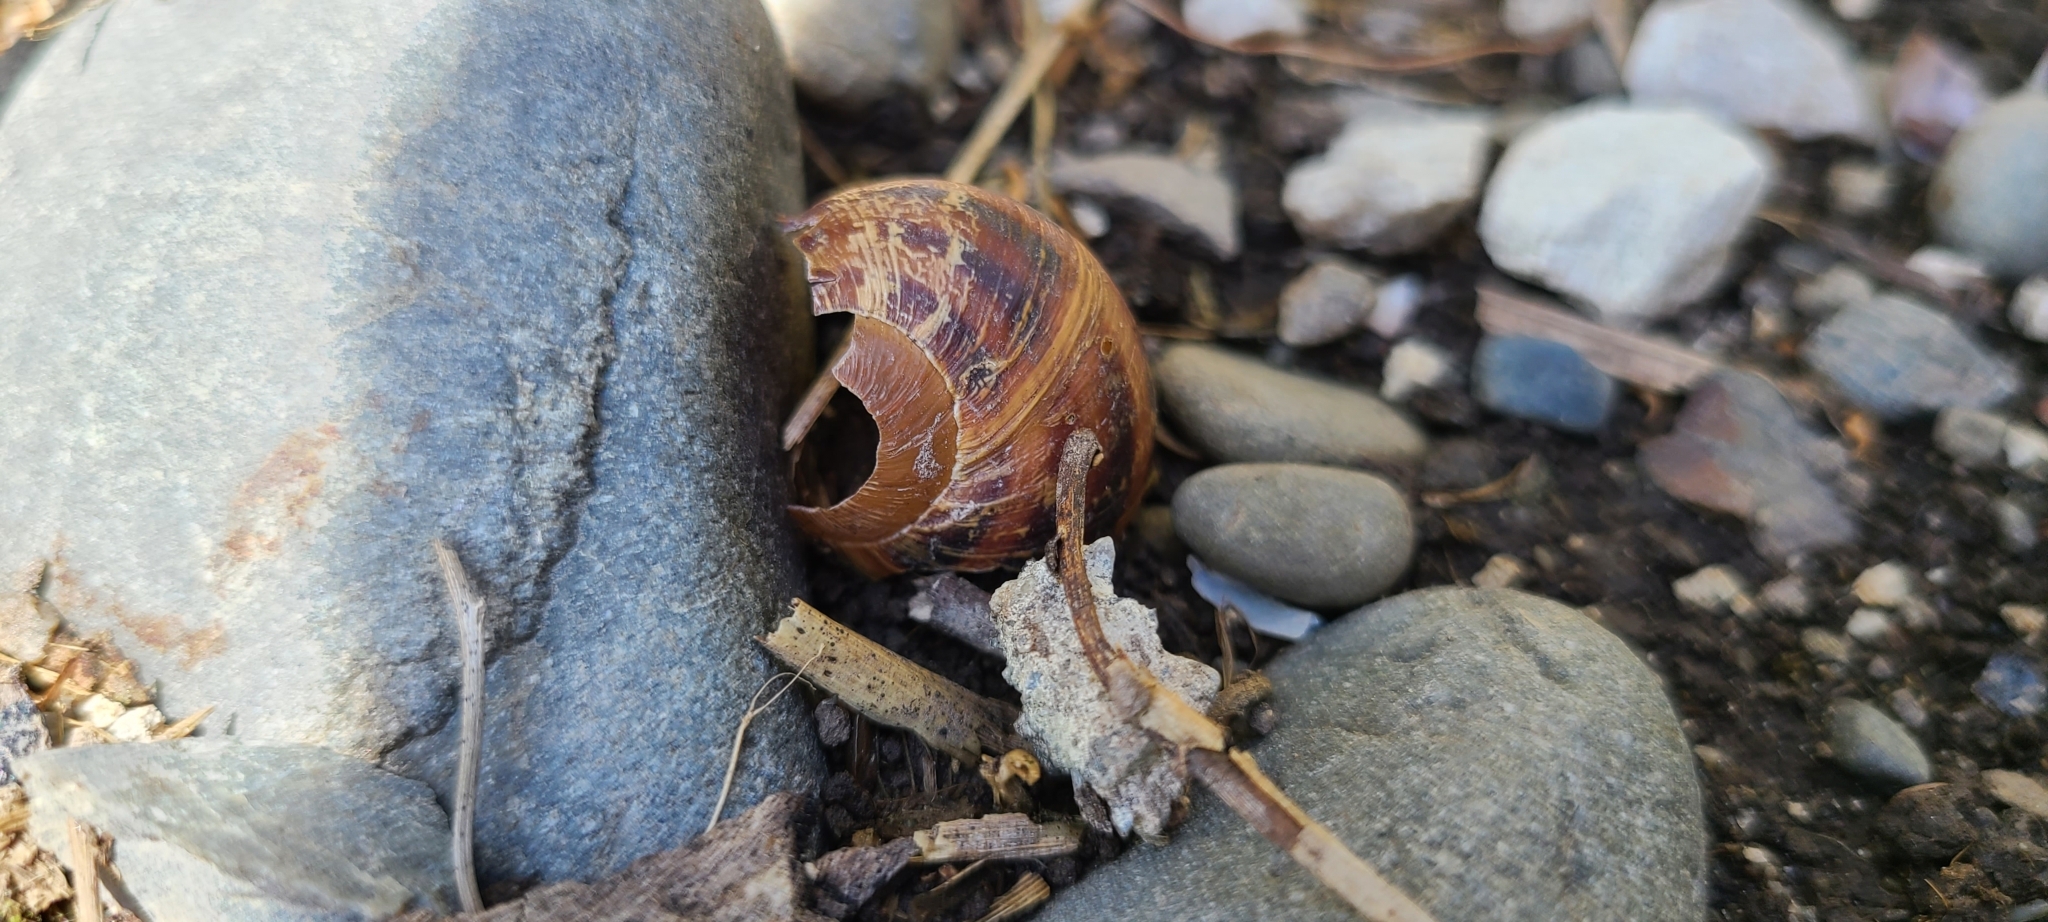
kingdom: Animalia
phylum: Mollusca
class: Gastropoda
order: Stylommatophora
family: Helicidae
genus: Cornu
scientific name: Cornu aspersum
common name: Brown garden snail
